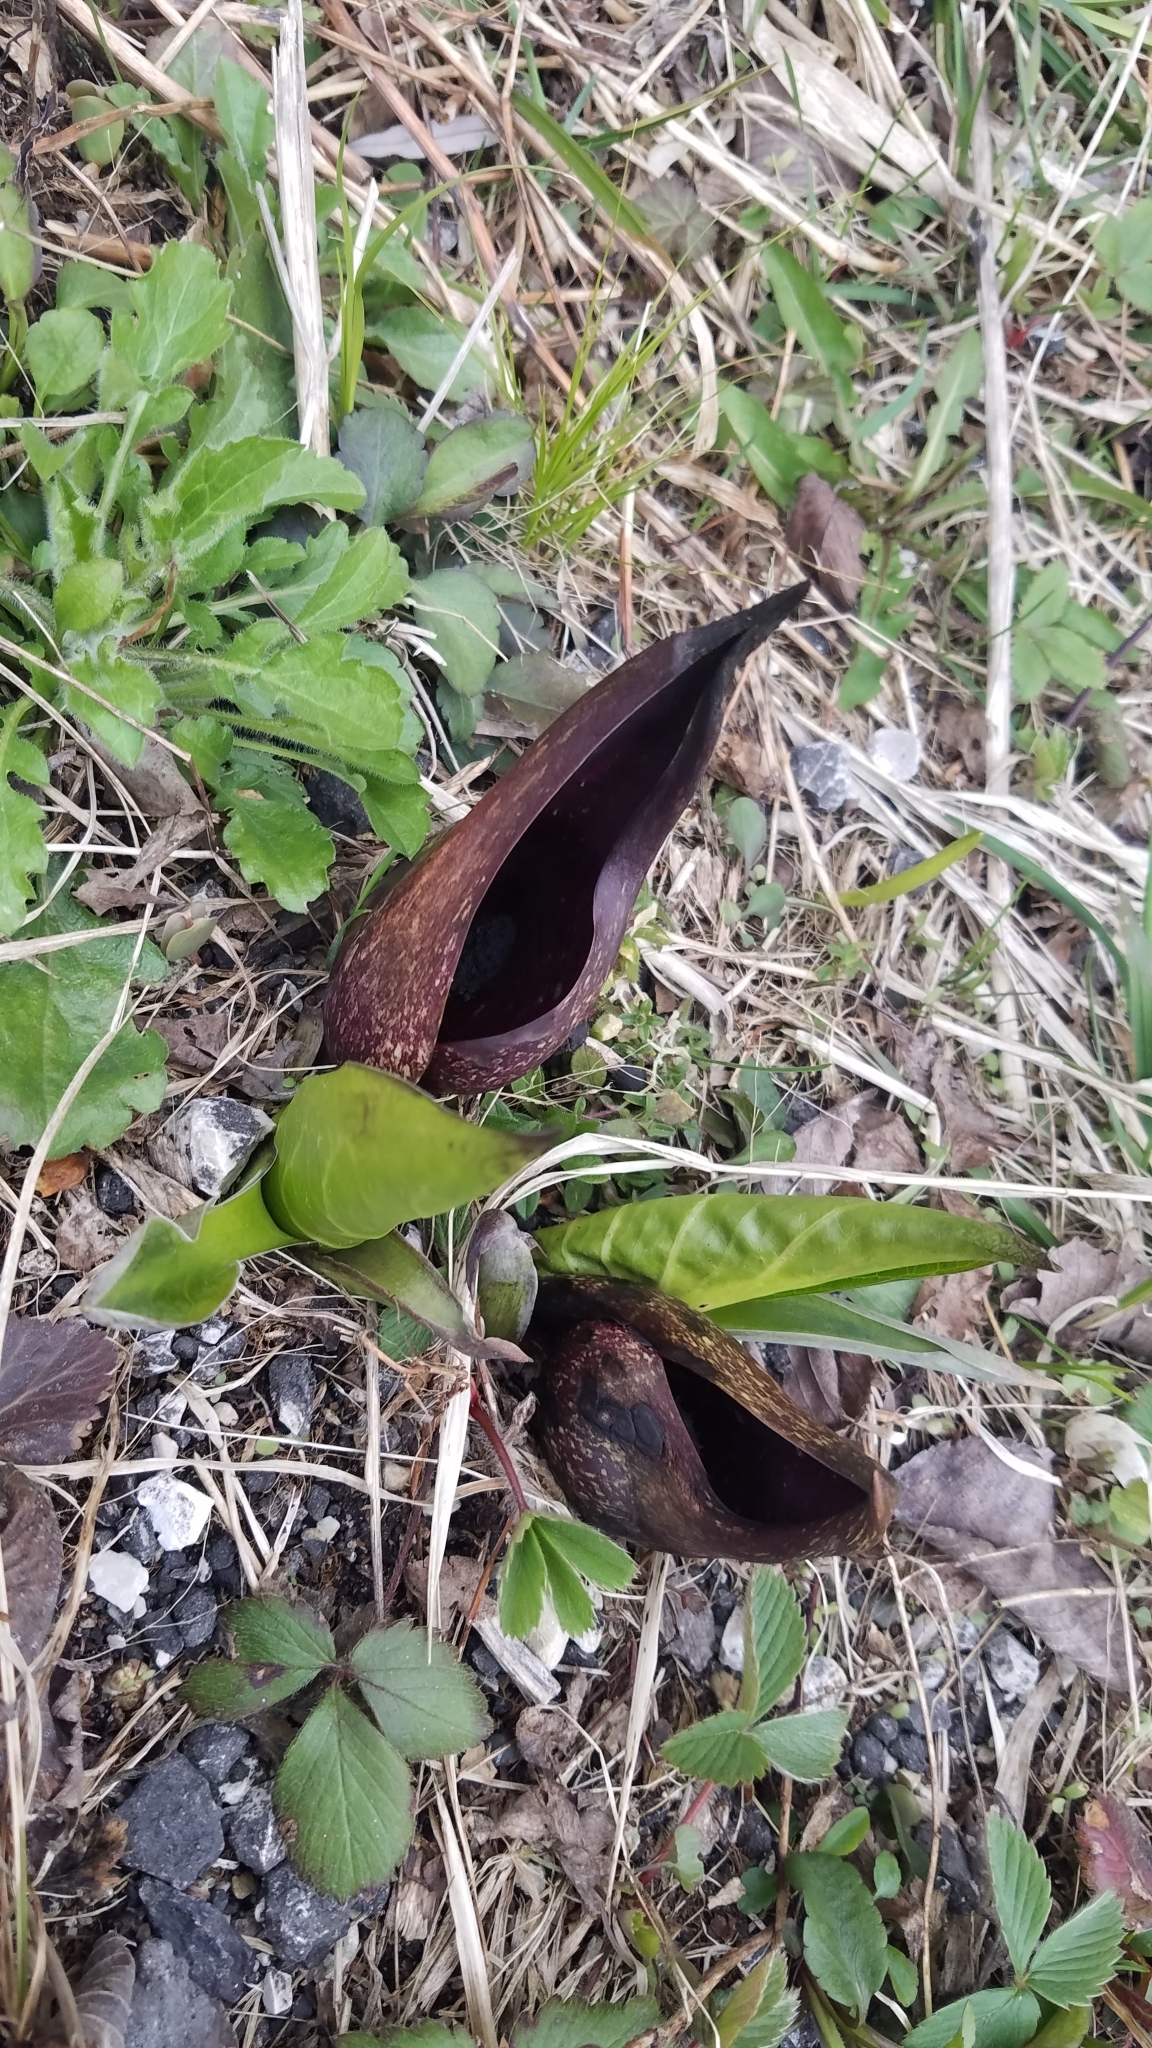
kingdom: Plantae
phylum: Tracheophyta
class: Liliopsida
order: Alismatales
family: Araceae
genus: Symplocarpus
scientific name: Symplocarpus foetidus
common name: Eastern skunk cabbage
